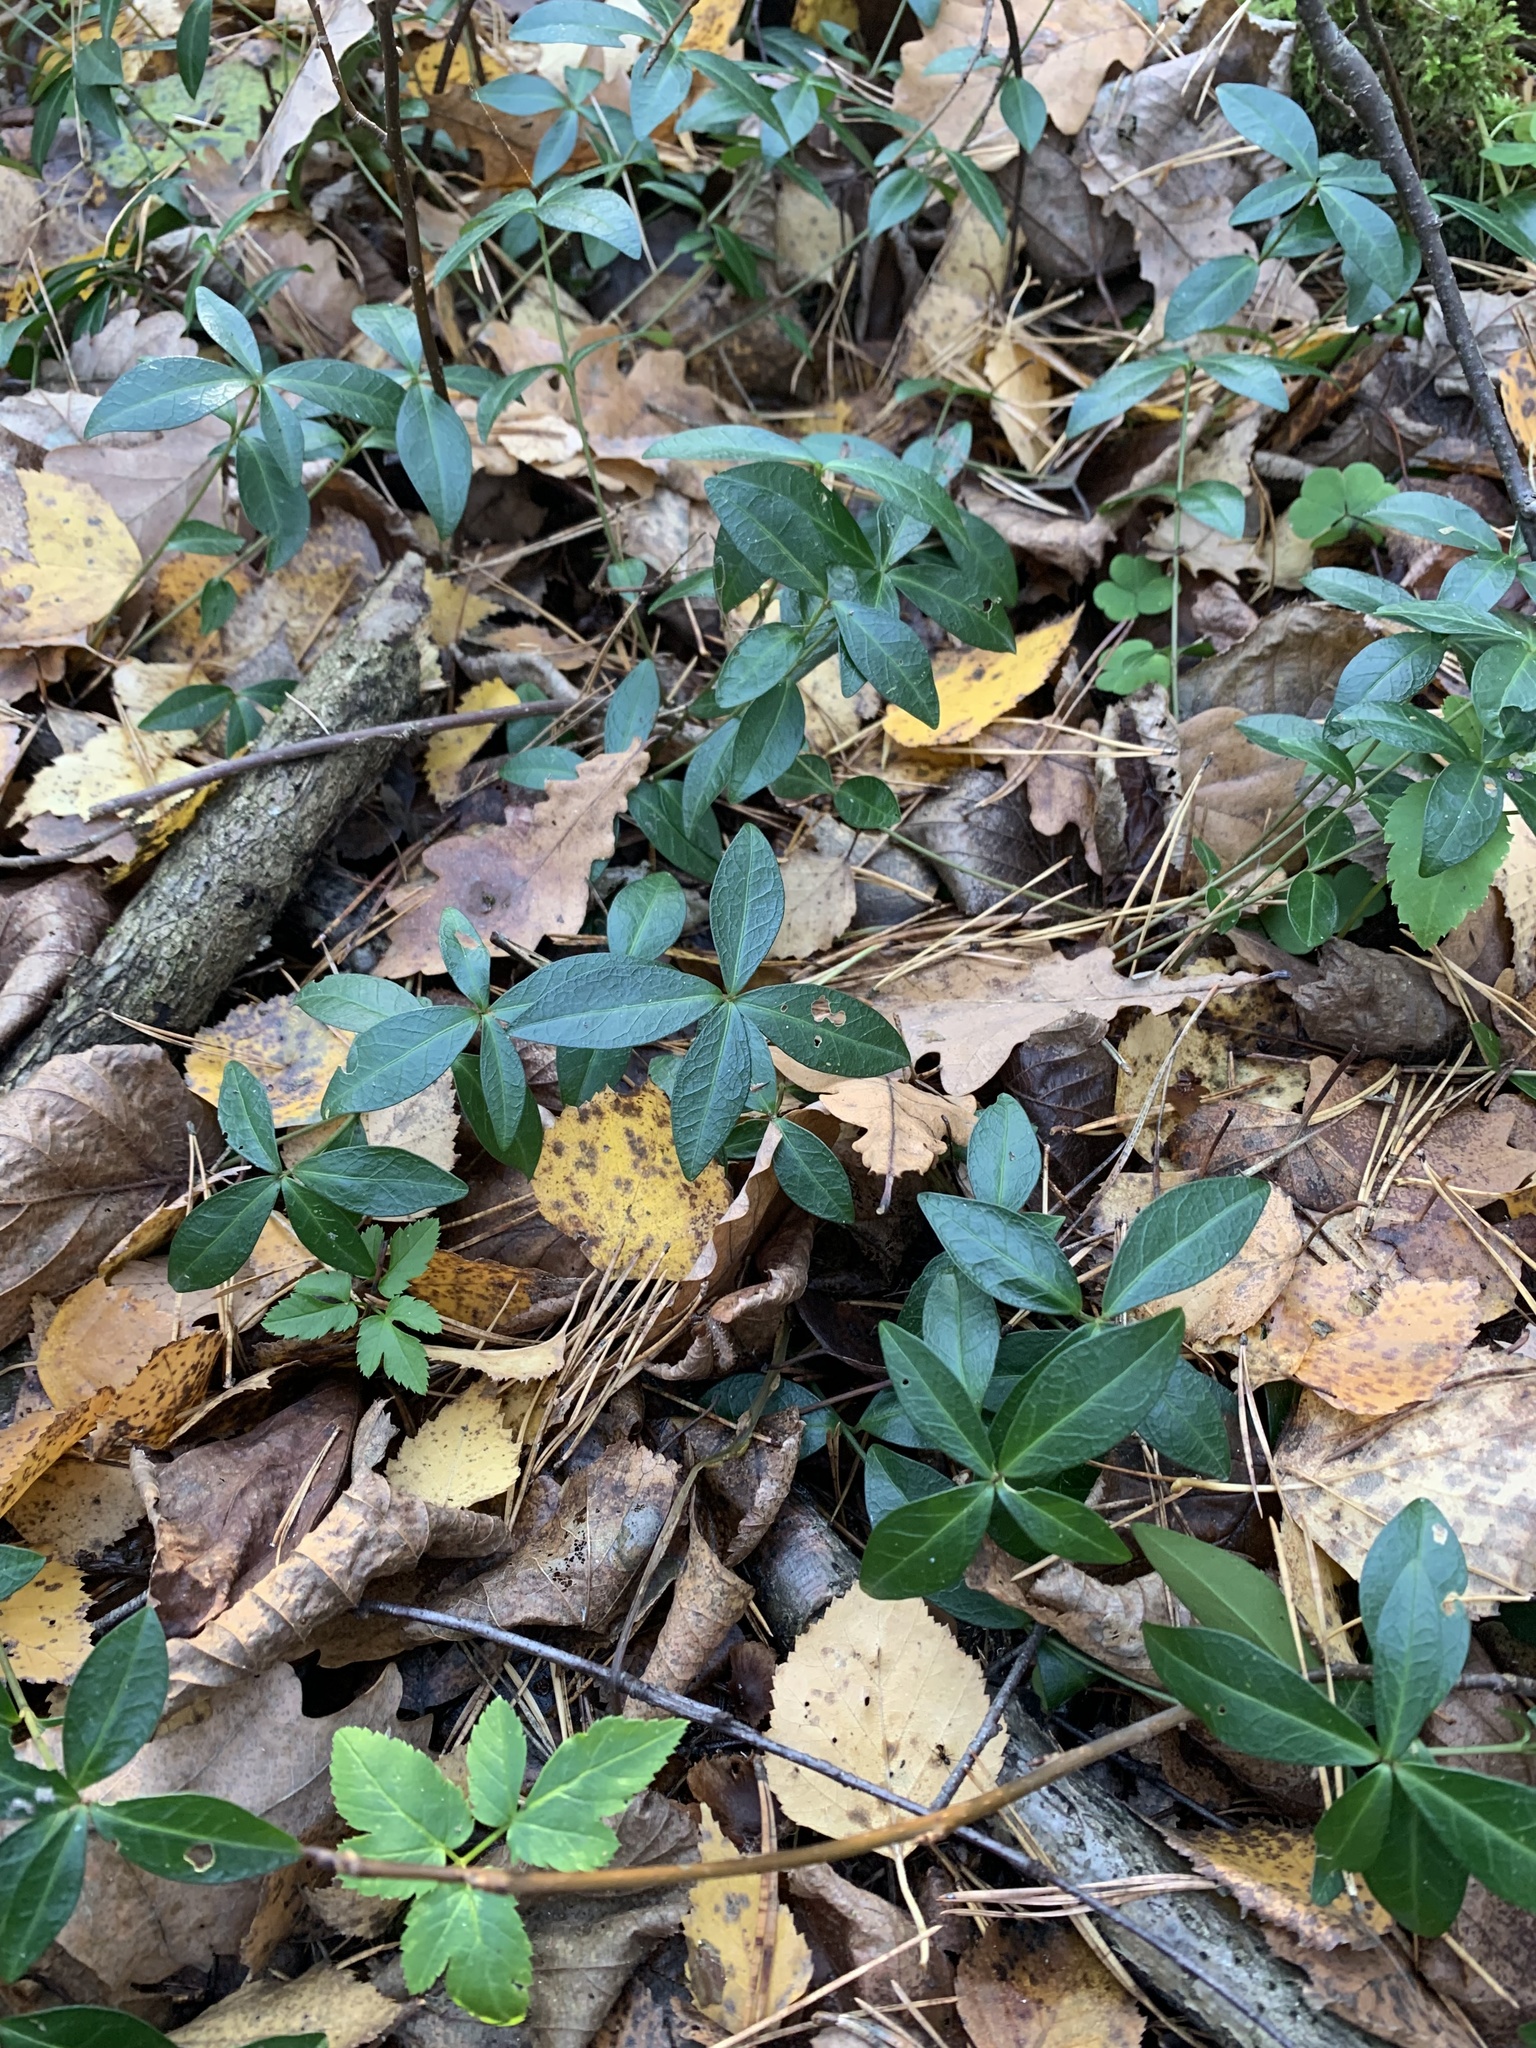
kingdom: Plantae
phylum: Tracheophyta
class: Magnoliopsida
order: Gentianales
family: Apocynaceae
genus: Vinca
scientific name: Vinca minor
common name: Lesser periwinkle
